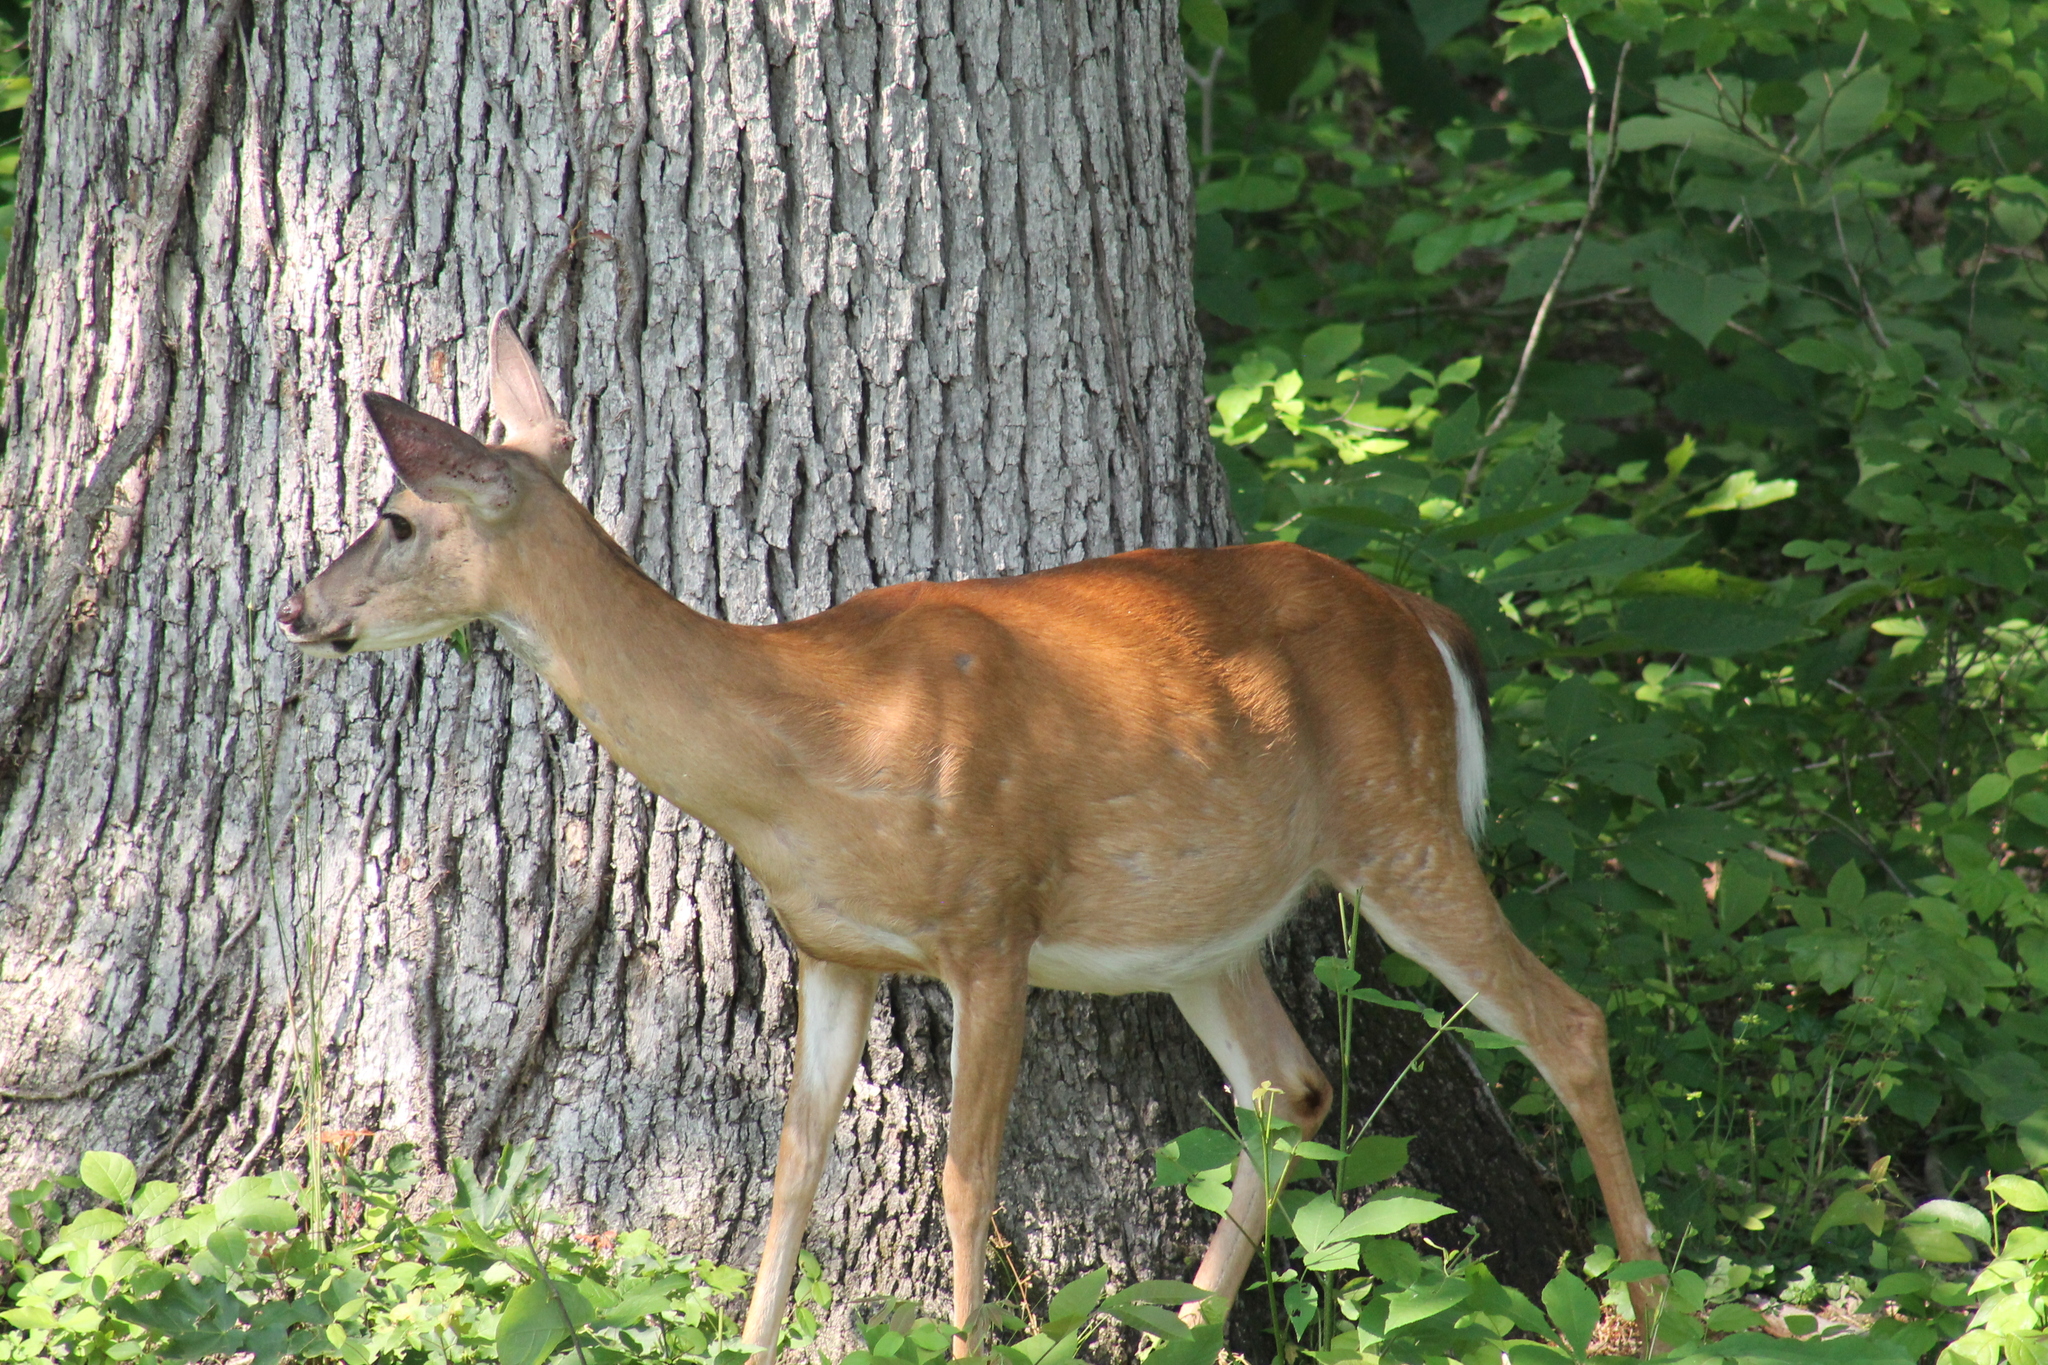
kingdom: Animalia
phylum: Chordata
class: Mammalia
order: Artiodactyla
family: Cervidae
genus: Odocoileus
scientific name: Odocoileus virginianus
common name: White-tailed deer
